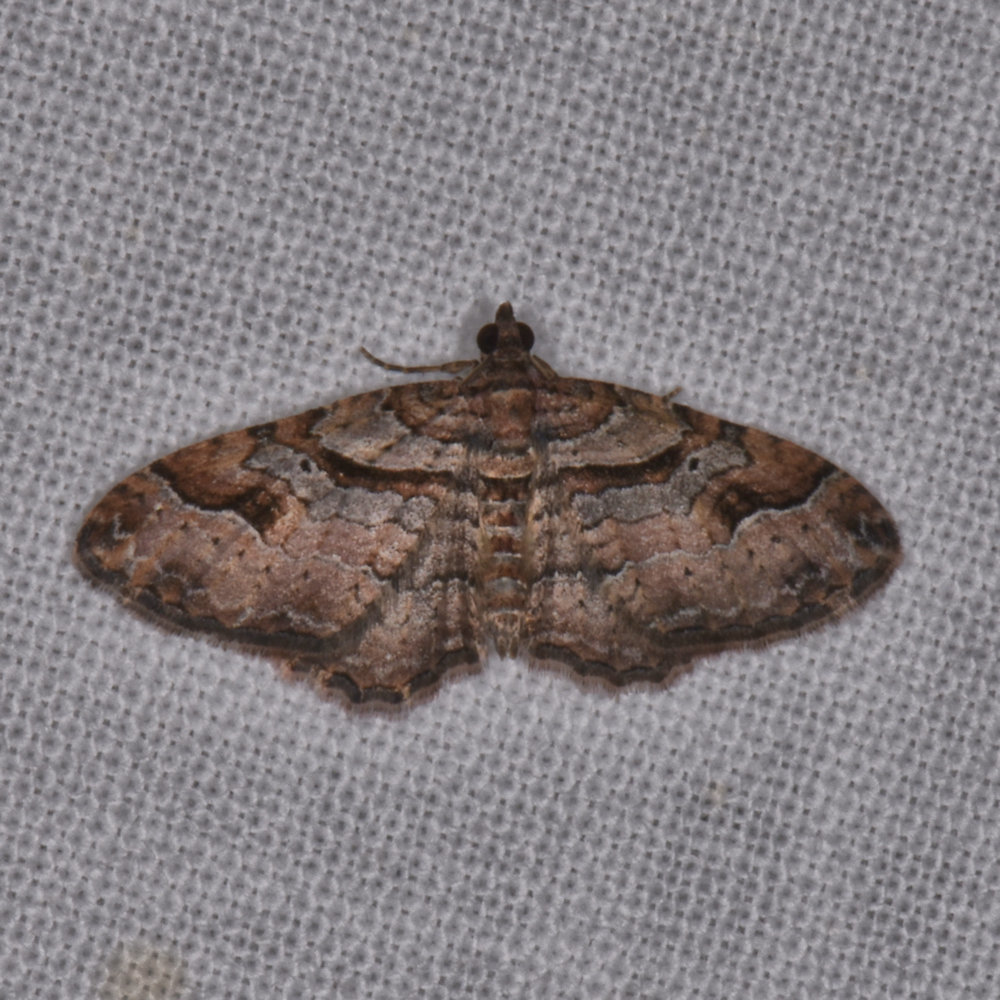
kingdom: Animalia
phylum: Arthropoda
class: Insecta
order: Lepidoptera
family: Geometridae
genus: Costaconvexa
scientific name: Costaconvexa centrostrigaria
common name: Bent-line carpet
